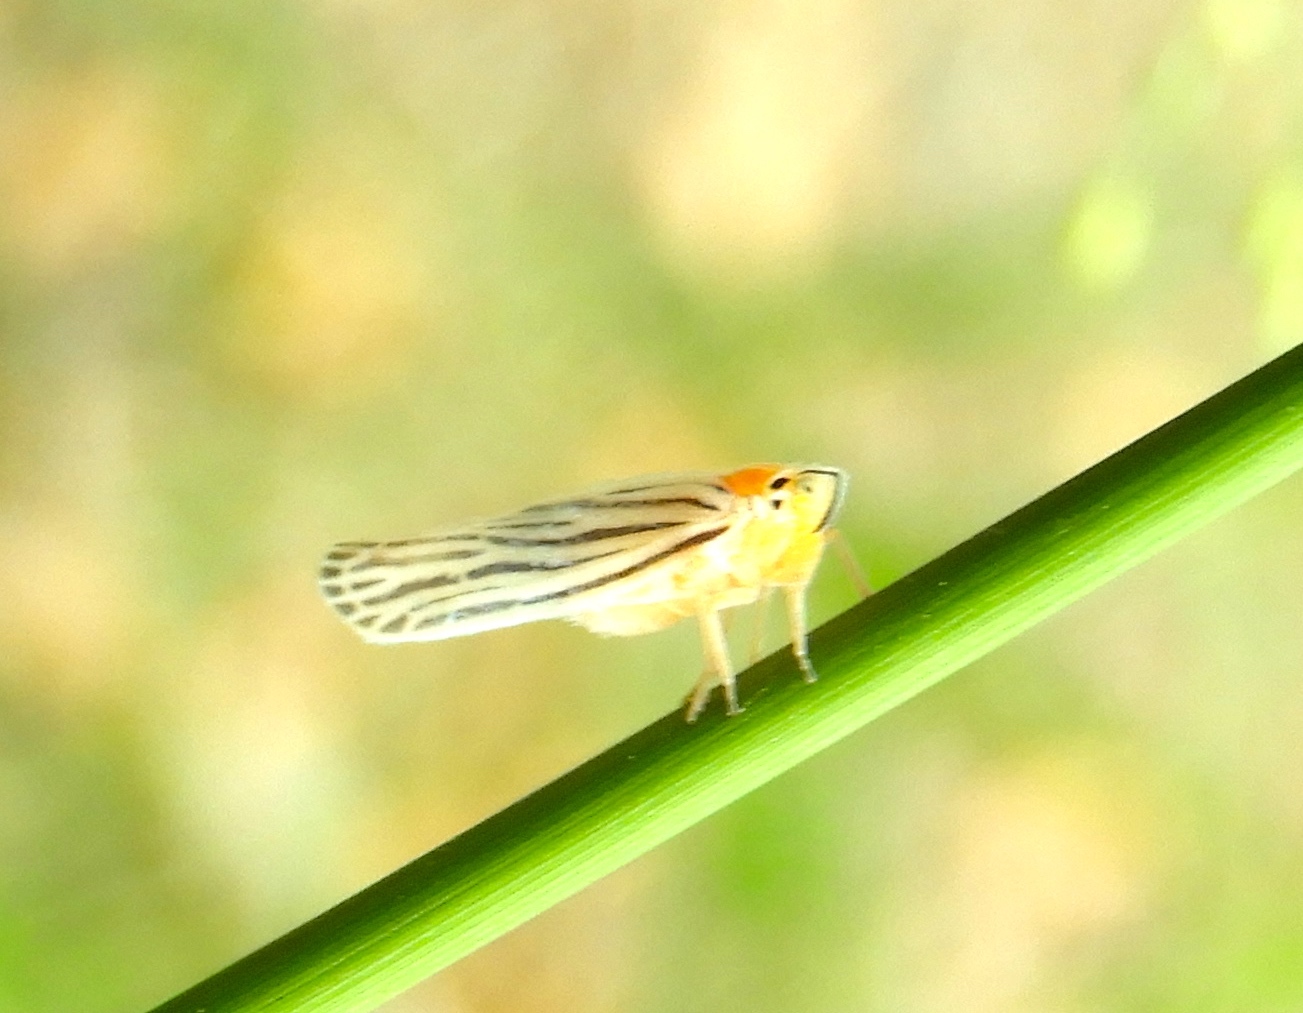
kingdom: Animalia
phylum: Arthropoda
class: Insecta
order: Hemiptera
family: Derbidae
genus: Persis
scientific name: Persis
